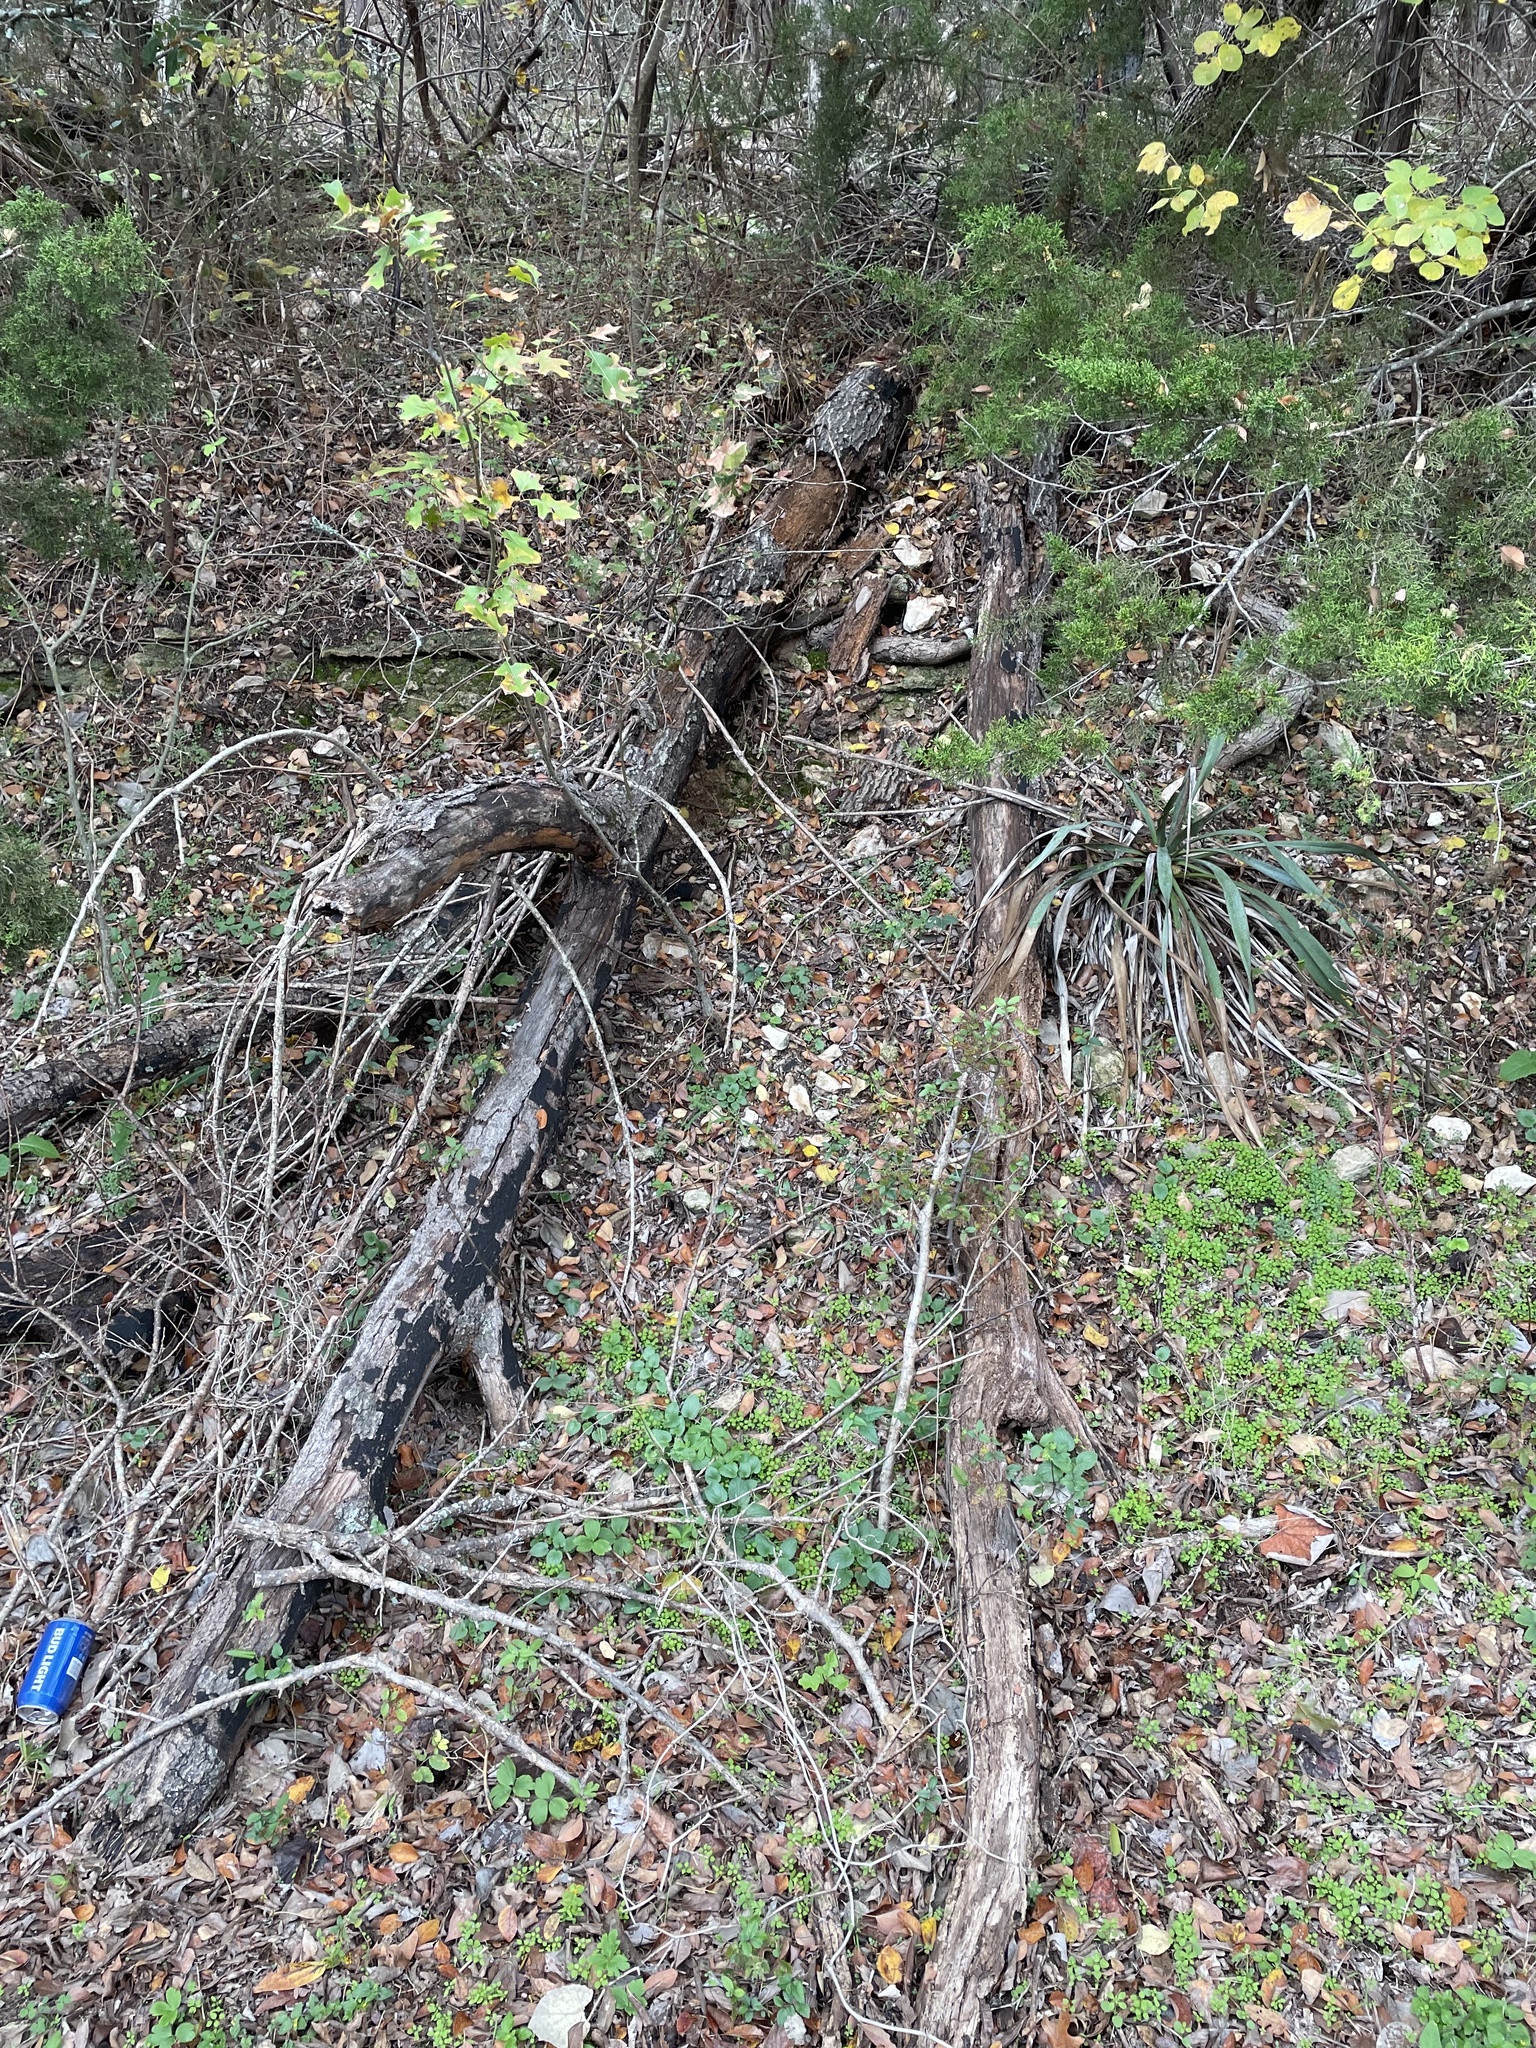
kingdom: Plantae
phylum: Tracheophyta
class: Magnoliopsida
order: Fagales
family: Fagaceae
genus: Quercus
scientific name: Quercus buckleyi
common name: Buckley oak
